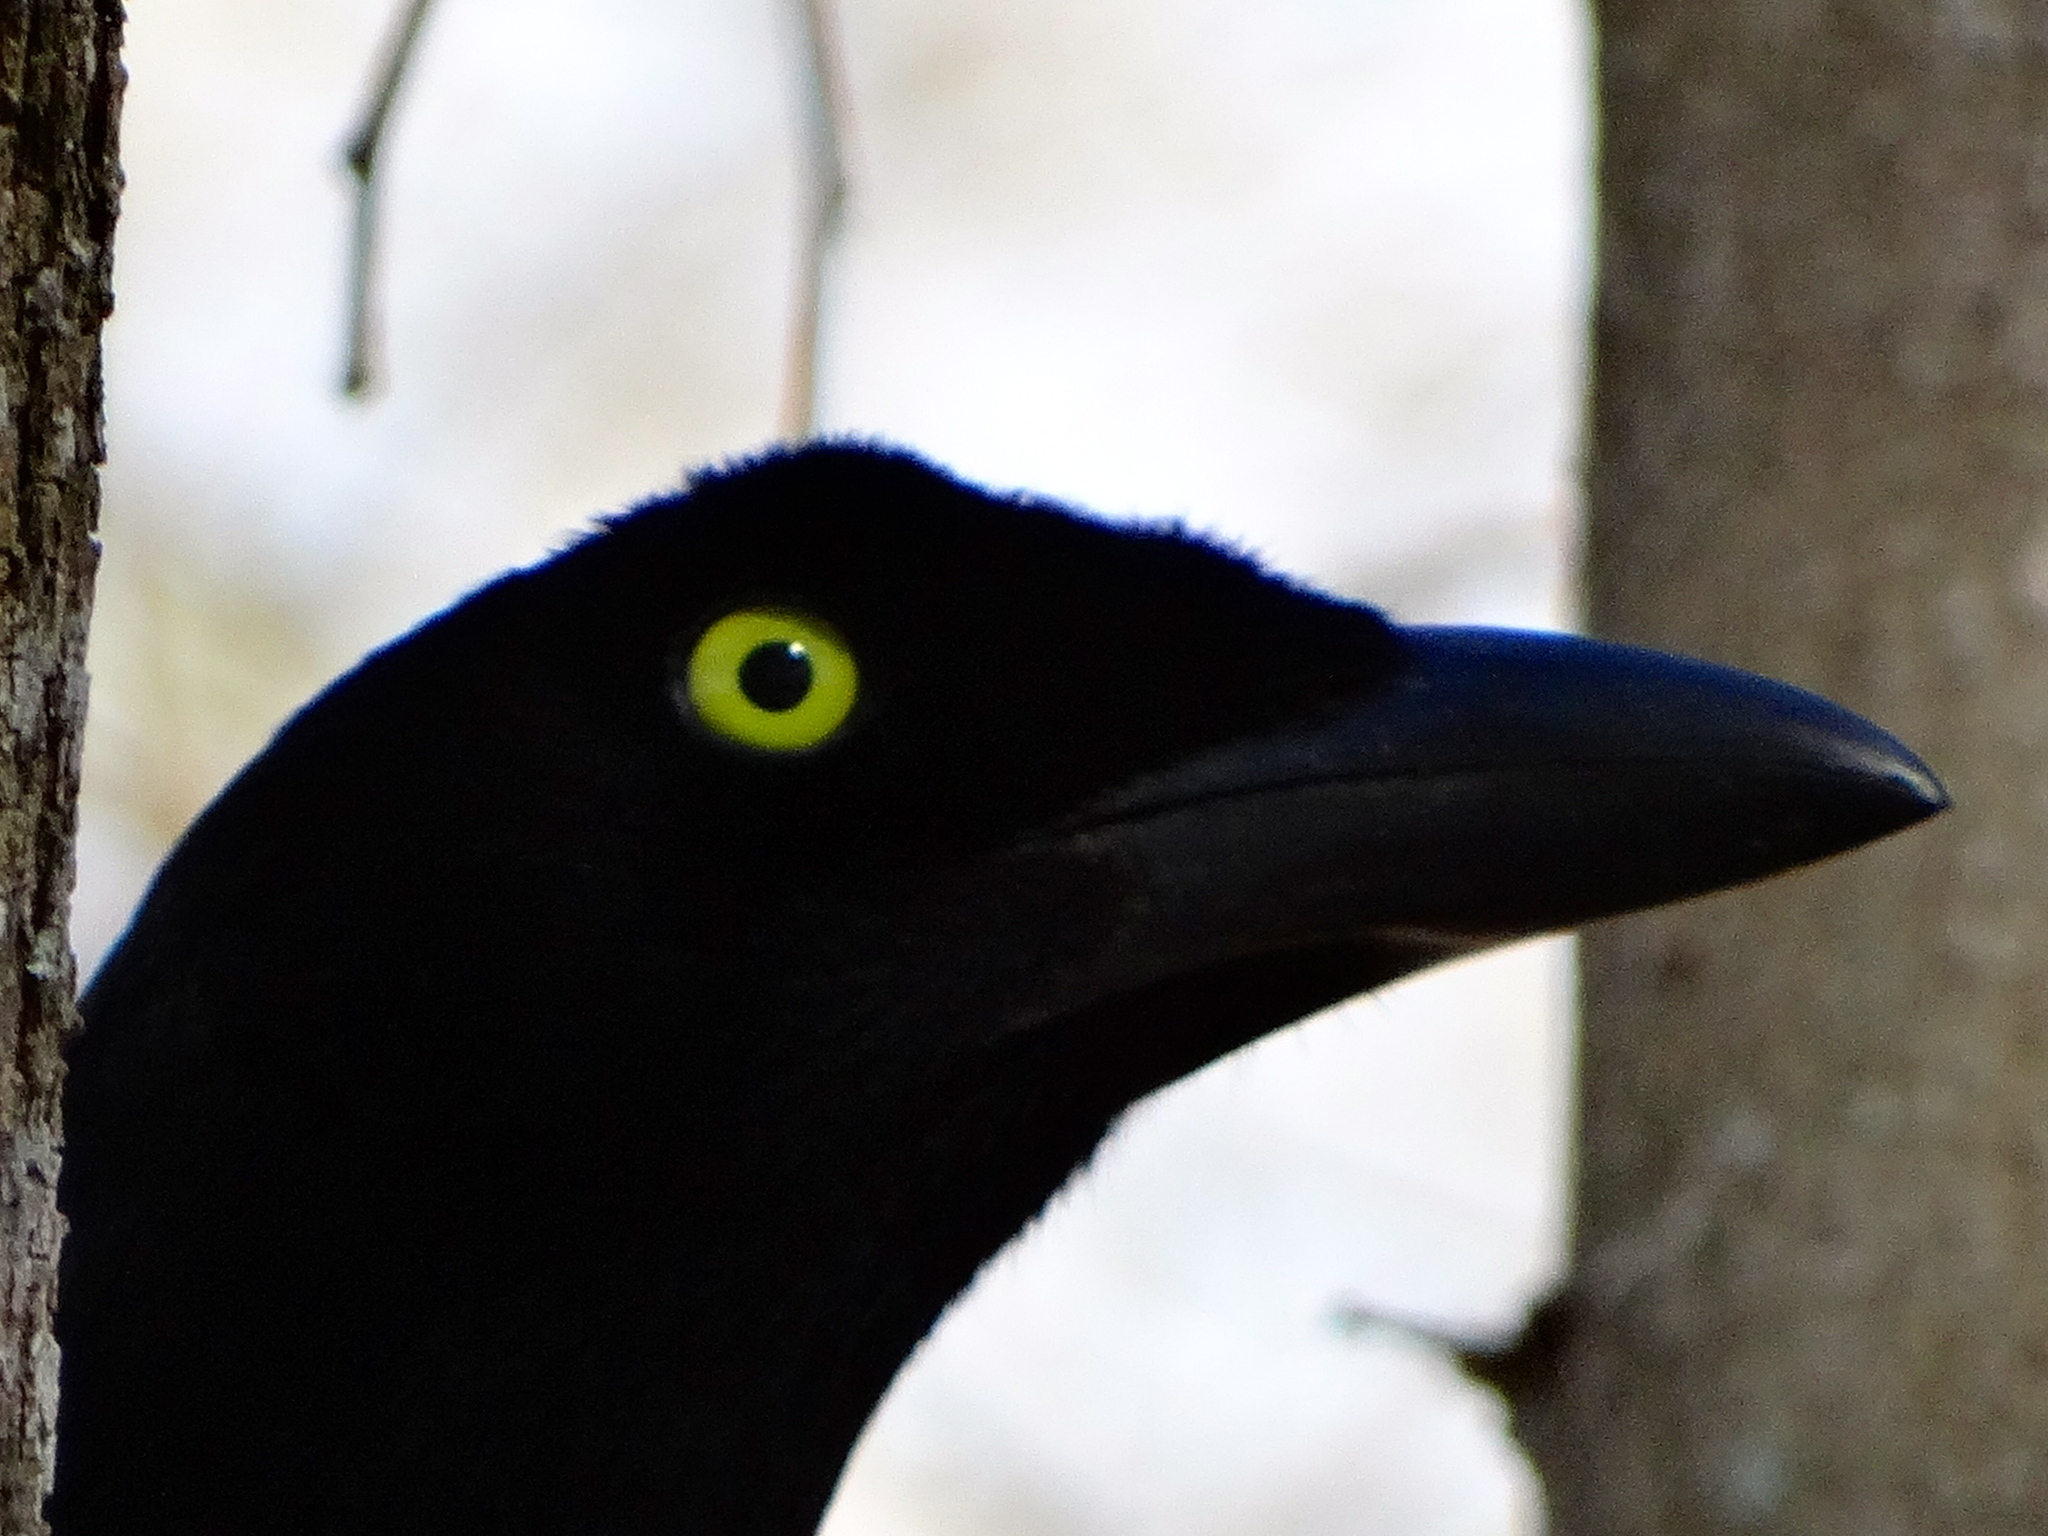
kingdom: Animalia
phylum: Chordata
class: Aves
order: Passeriformes
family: Corvidae
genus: Cyanocorax
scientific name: Cyanocorax beecheii
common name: Purplish-backed jay
